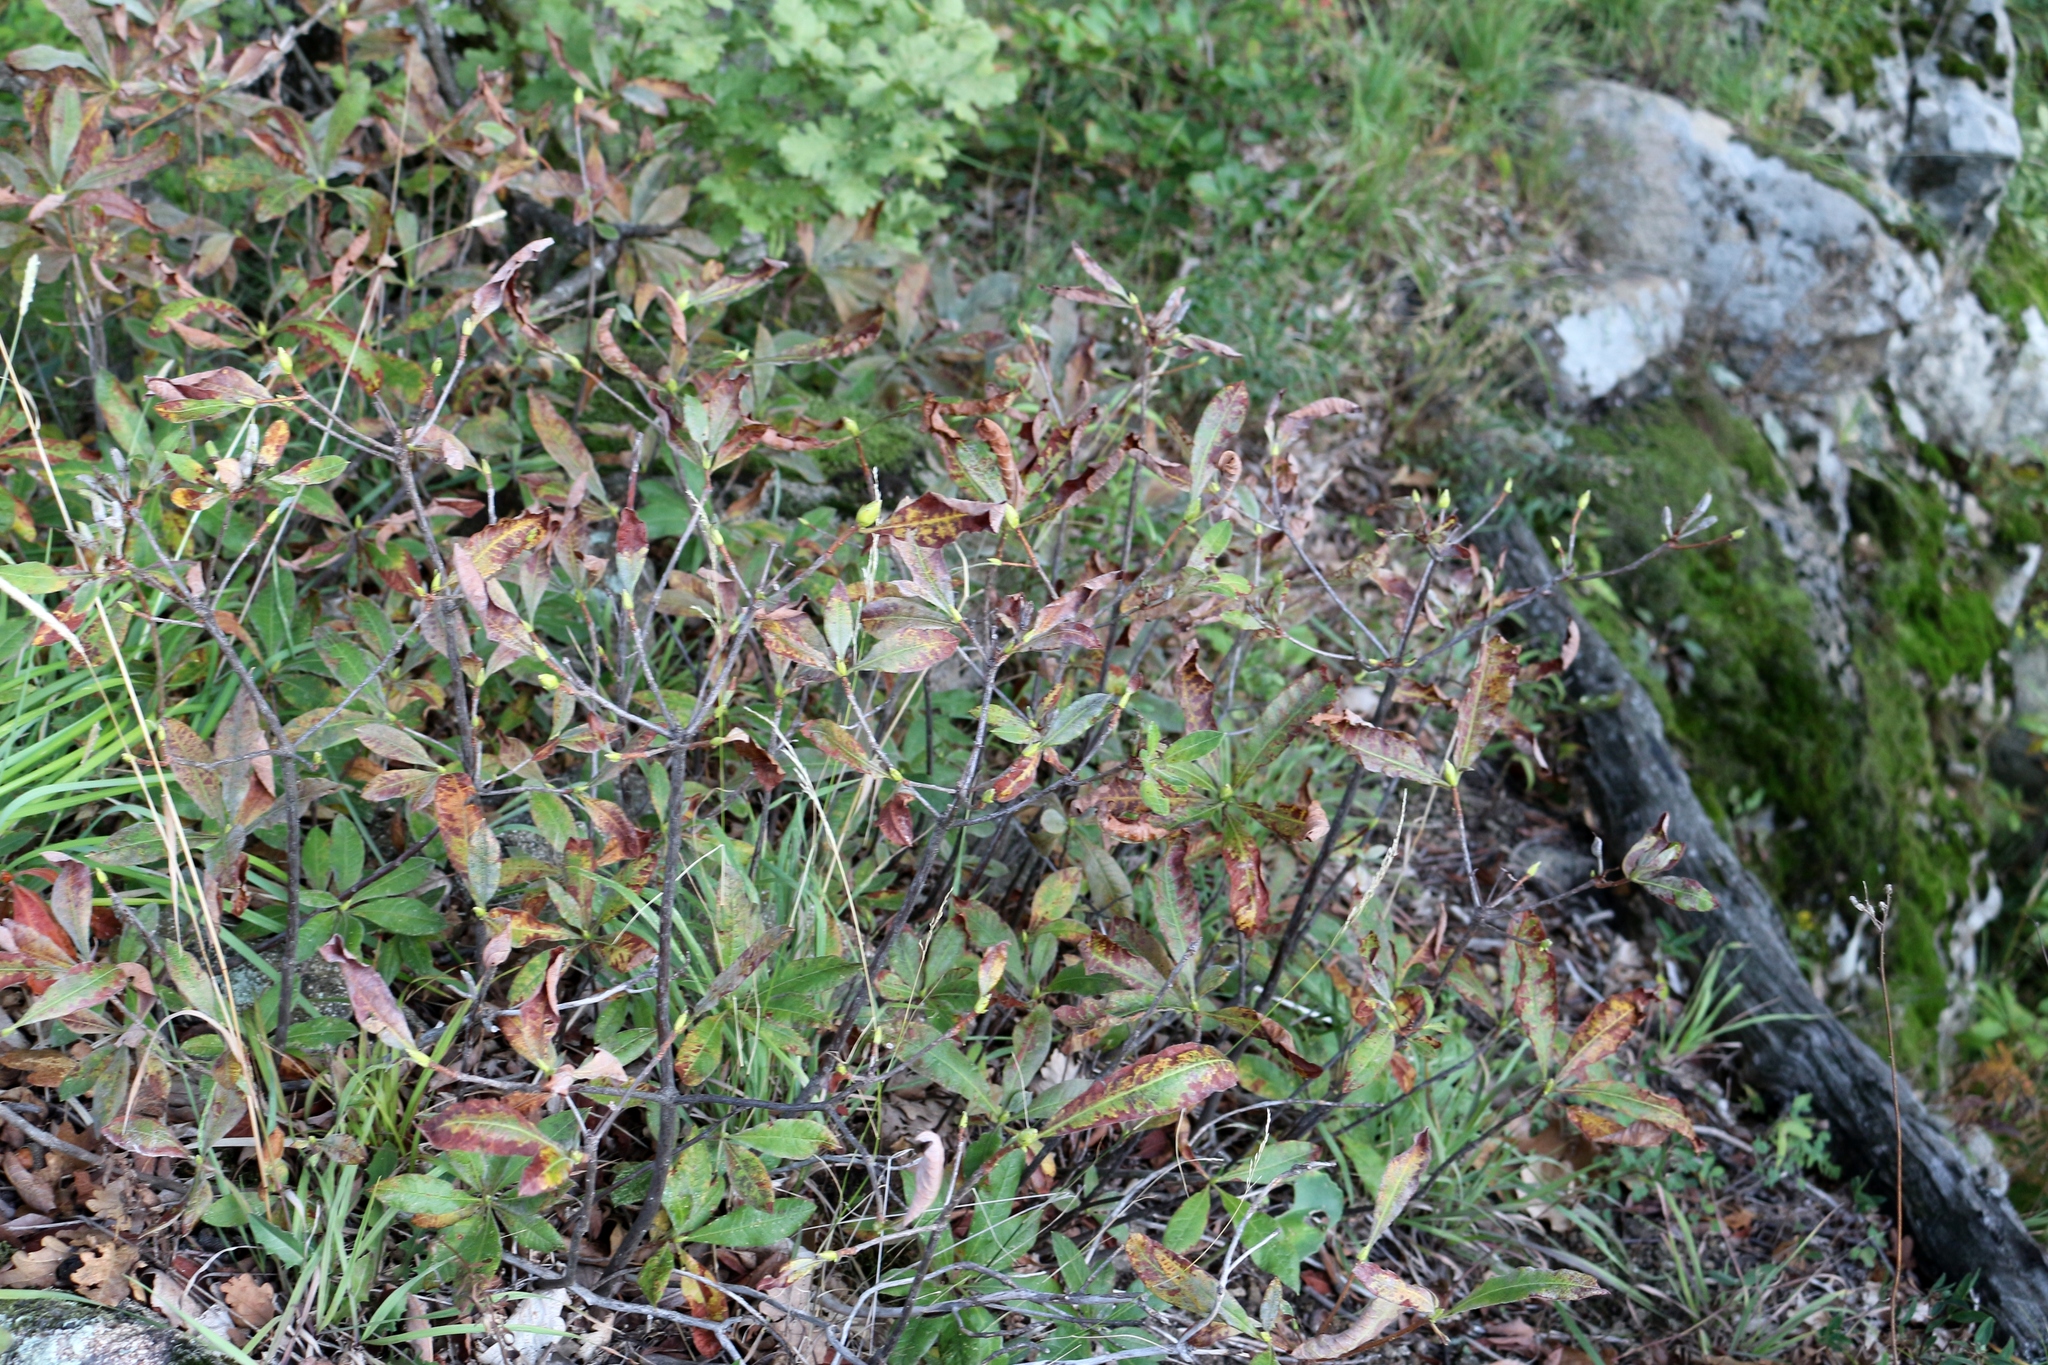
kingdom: Plantae
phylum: Tracheophyta
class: Magnoliopsida
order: Ericales
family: Ericaceae
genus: Rhododendron
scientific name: Rhododendron luteum
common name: Yellow azalea
